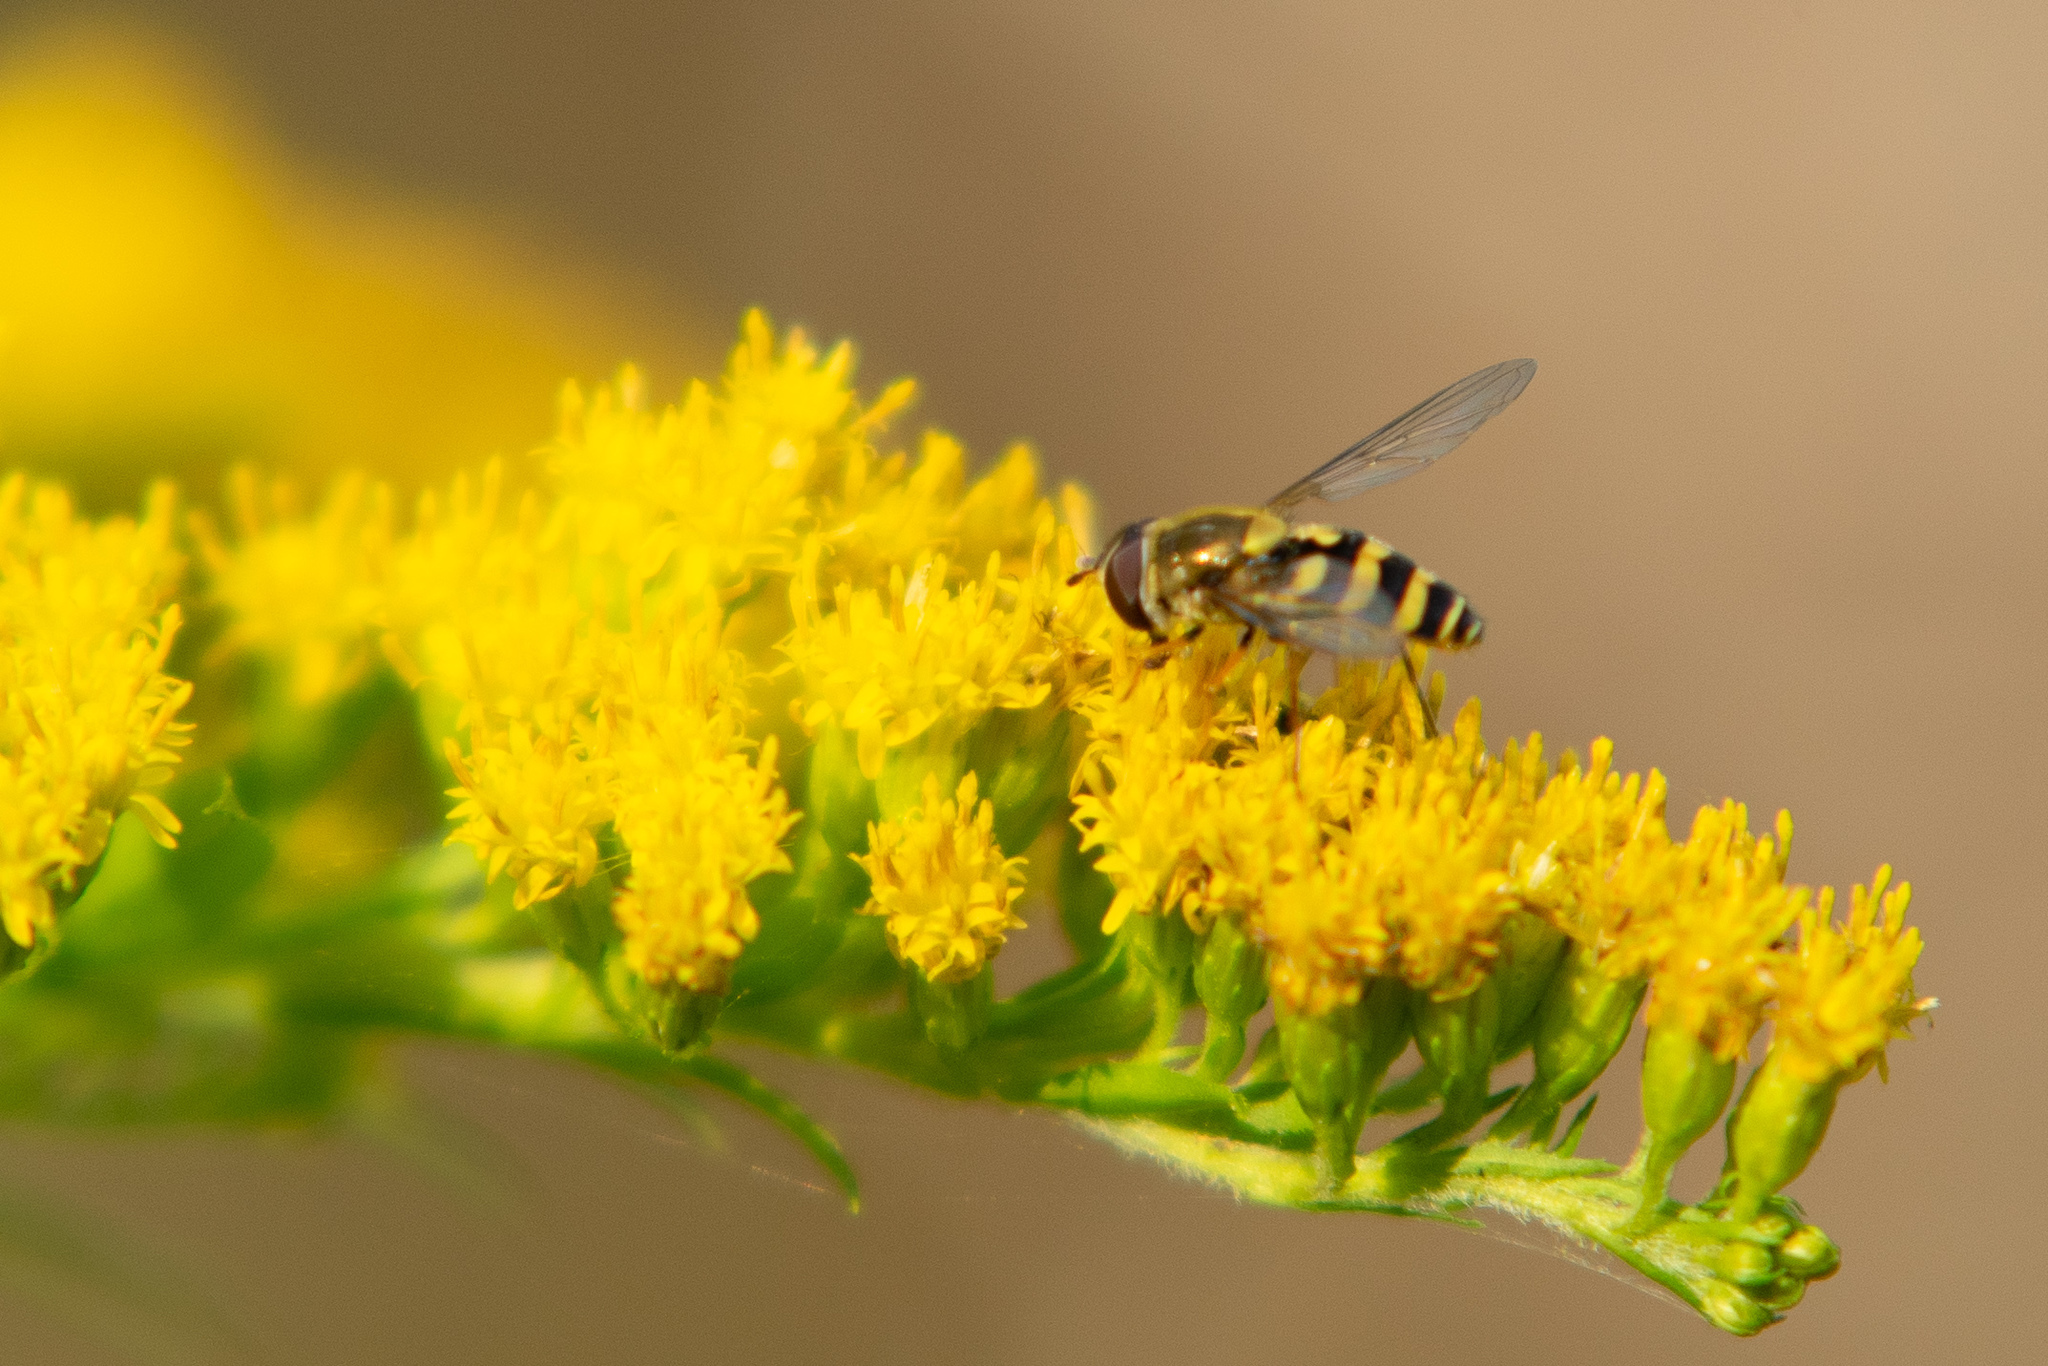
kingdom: Animalia
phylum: Arthropoda
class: Insecta
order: Diptera
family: Syrphidae
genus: Syrphus
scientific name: Syrphus
